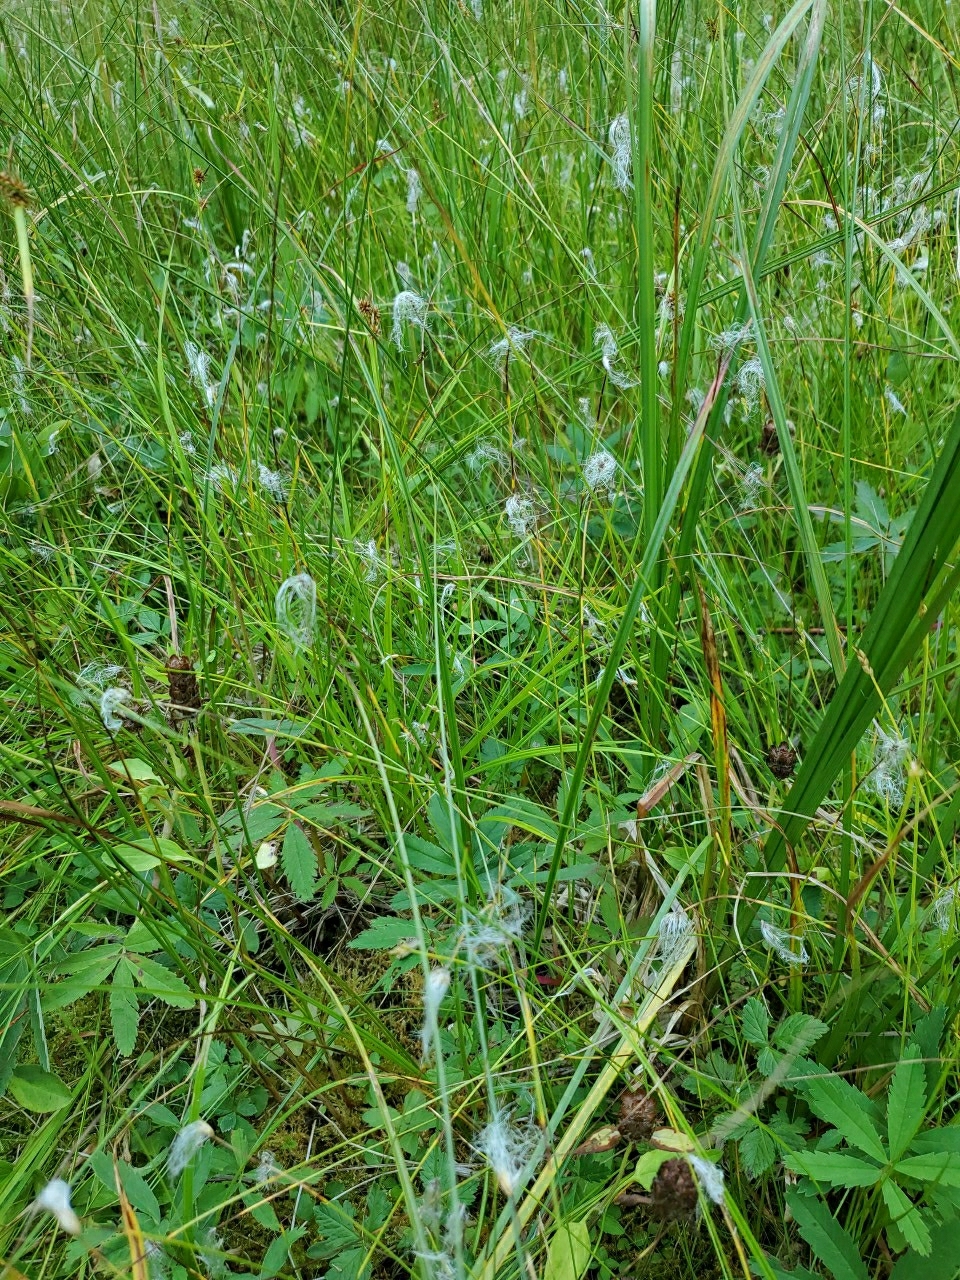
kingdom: Plantae
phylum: Tracheophyta
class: Liliopsida
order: Poales
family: Cyperaceae
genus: Trichophorum
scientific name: Trichophorum alpinum
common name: Alpine bulrush
